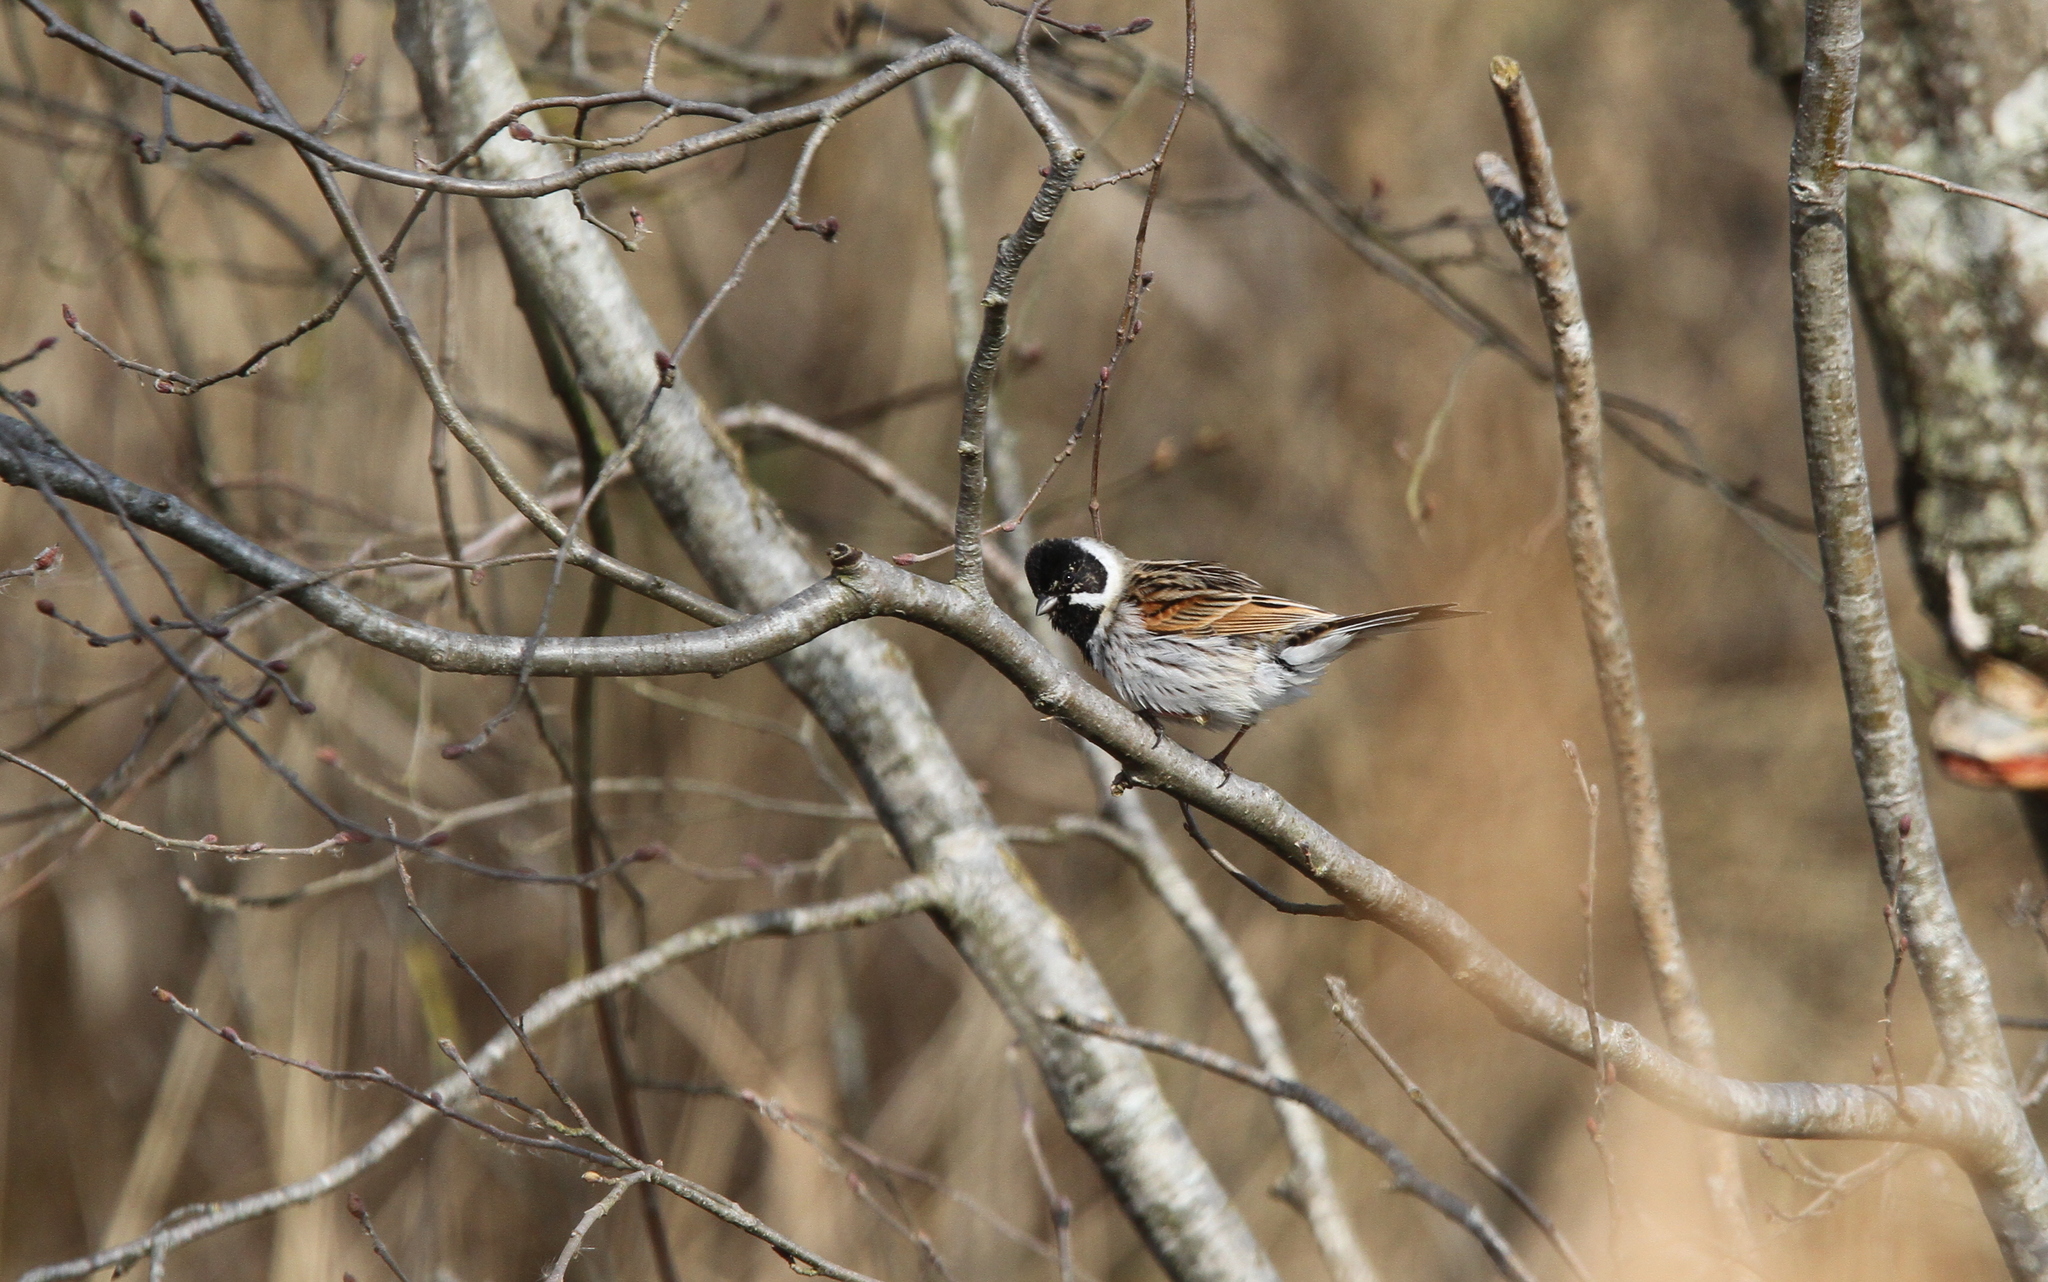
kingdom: Animalia
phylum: Chordata
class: Aves
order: Passeriformes
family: Emberizidae
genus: Emberiza
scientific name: Emberiza schoeniclus
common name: Reed bunting
